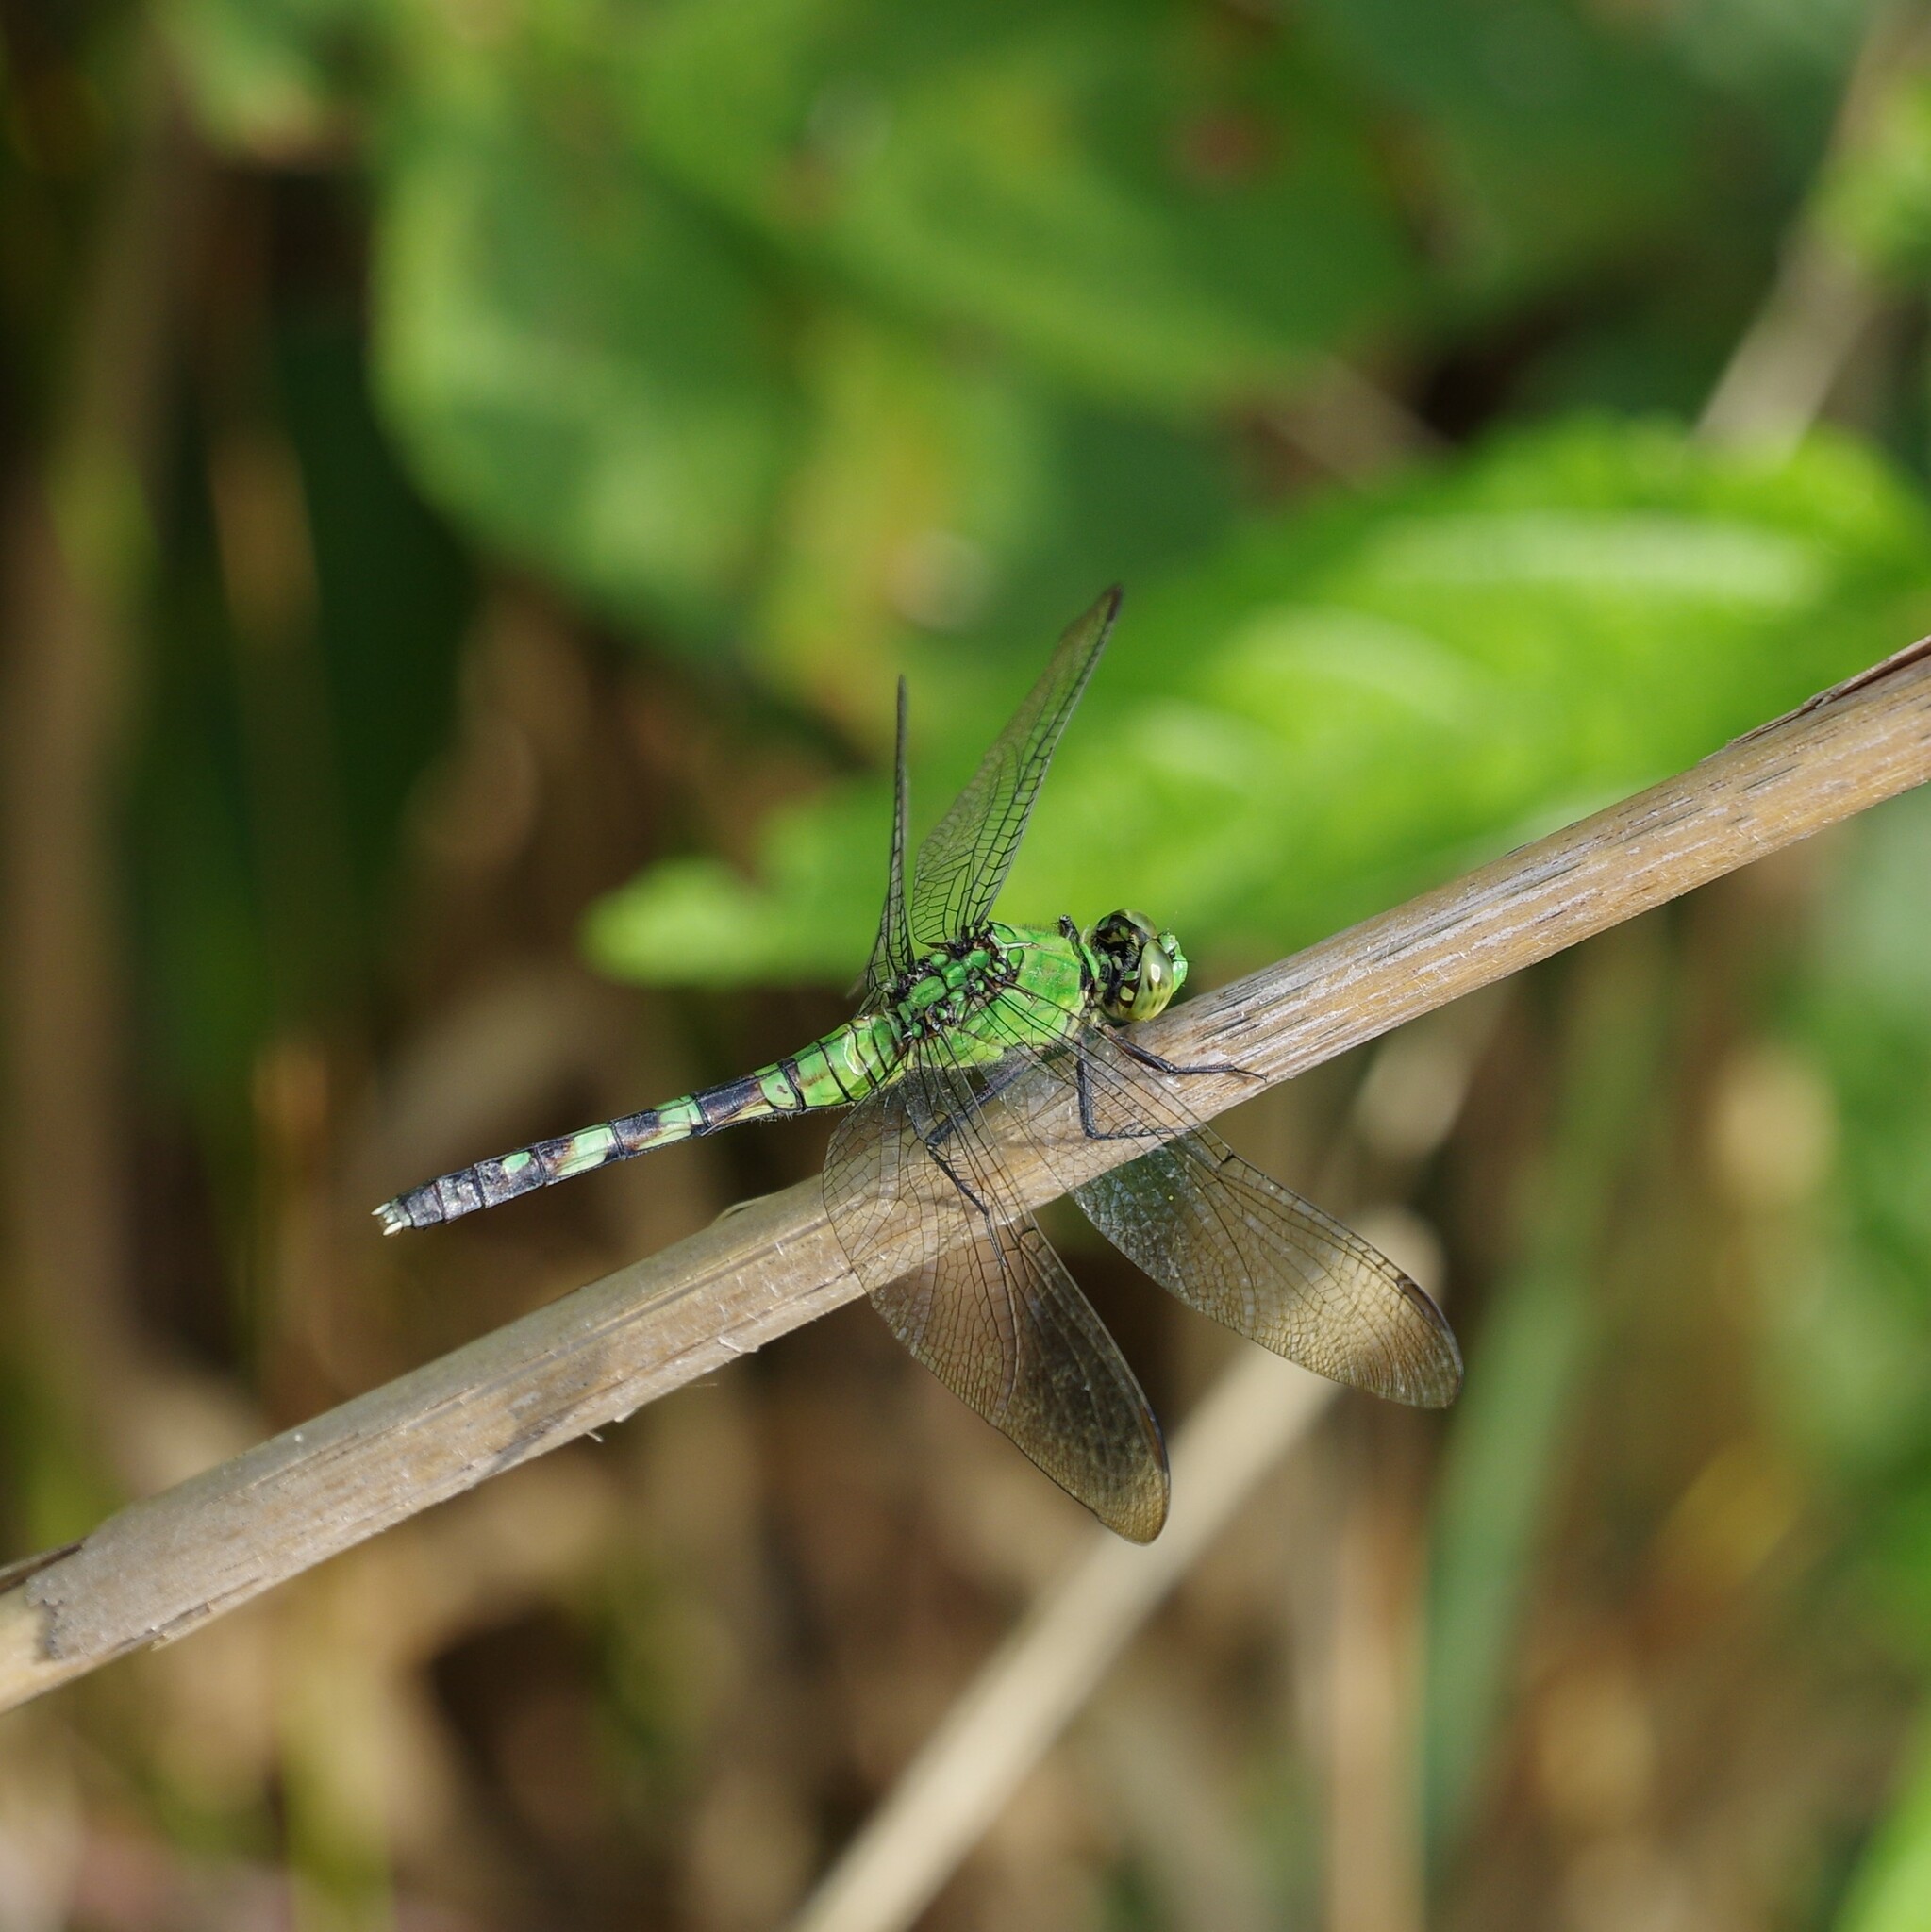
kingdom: Animalia
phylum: Arthropoda
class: Insecta
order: Odonata
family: Libellulidae
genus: Erythemis
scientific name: Erythemis simplicicollis
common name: Eastern pondhawk
